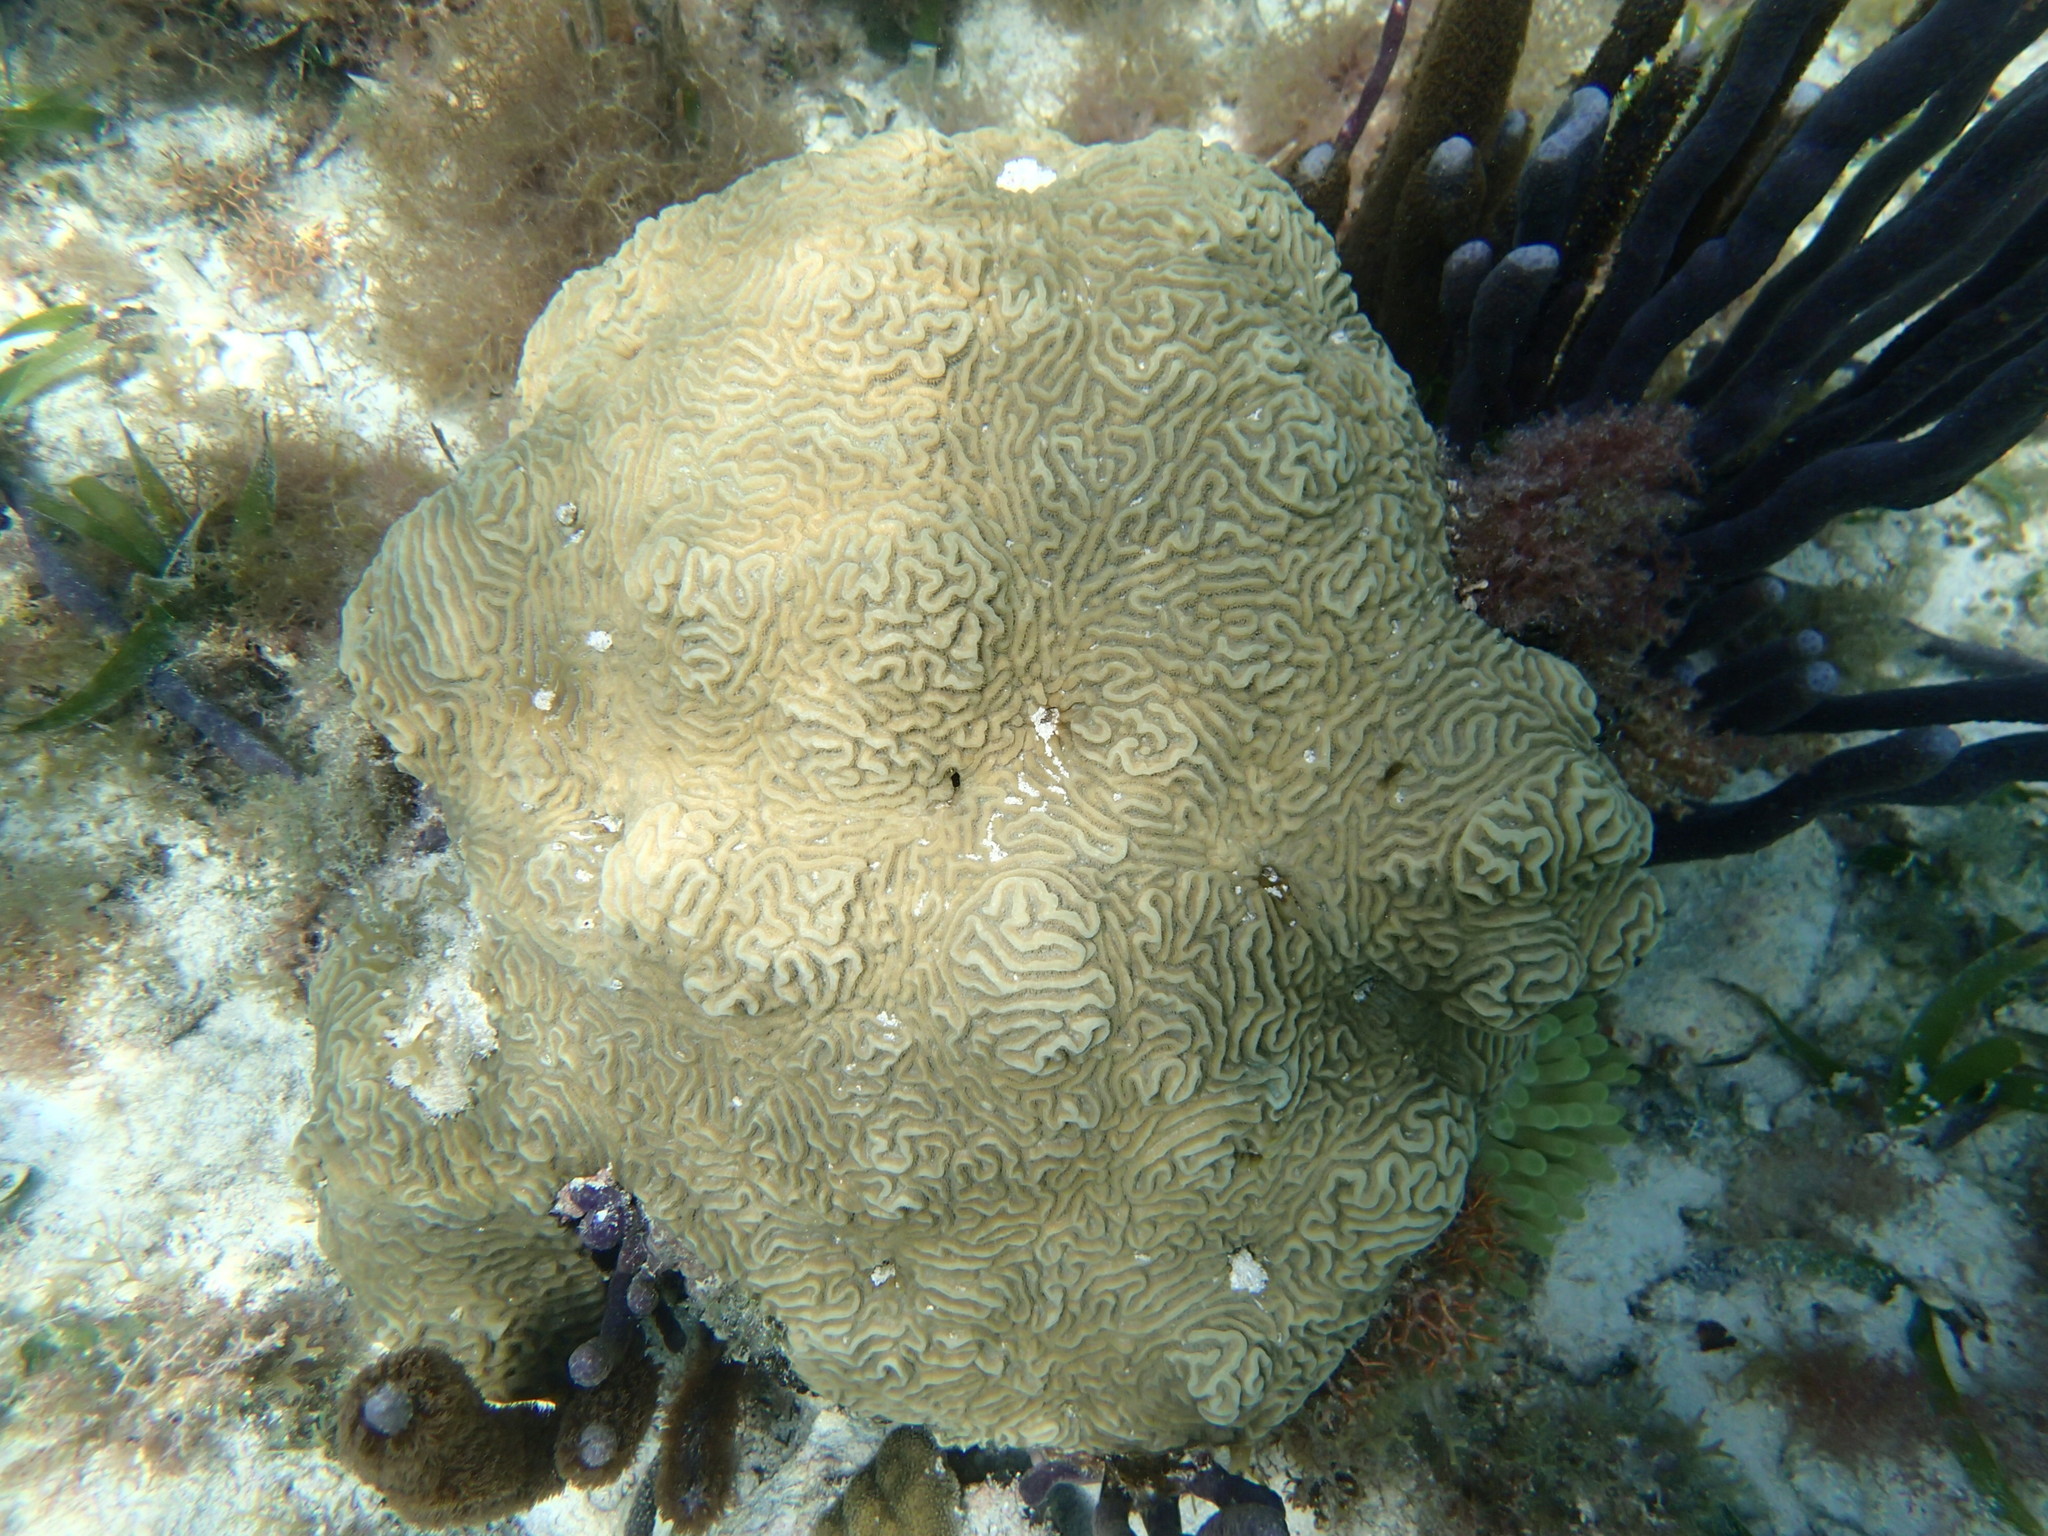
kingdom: Animalia
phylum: Cnidaria
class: Anthozoa
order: Scleractinia
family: Faviidae
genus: Pseudodiploria
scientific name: Pseudodiploria clivosa
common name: Knobby brain coral
